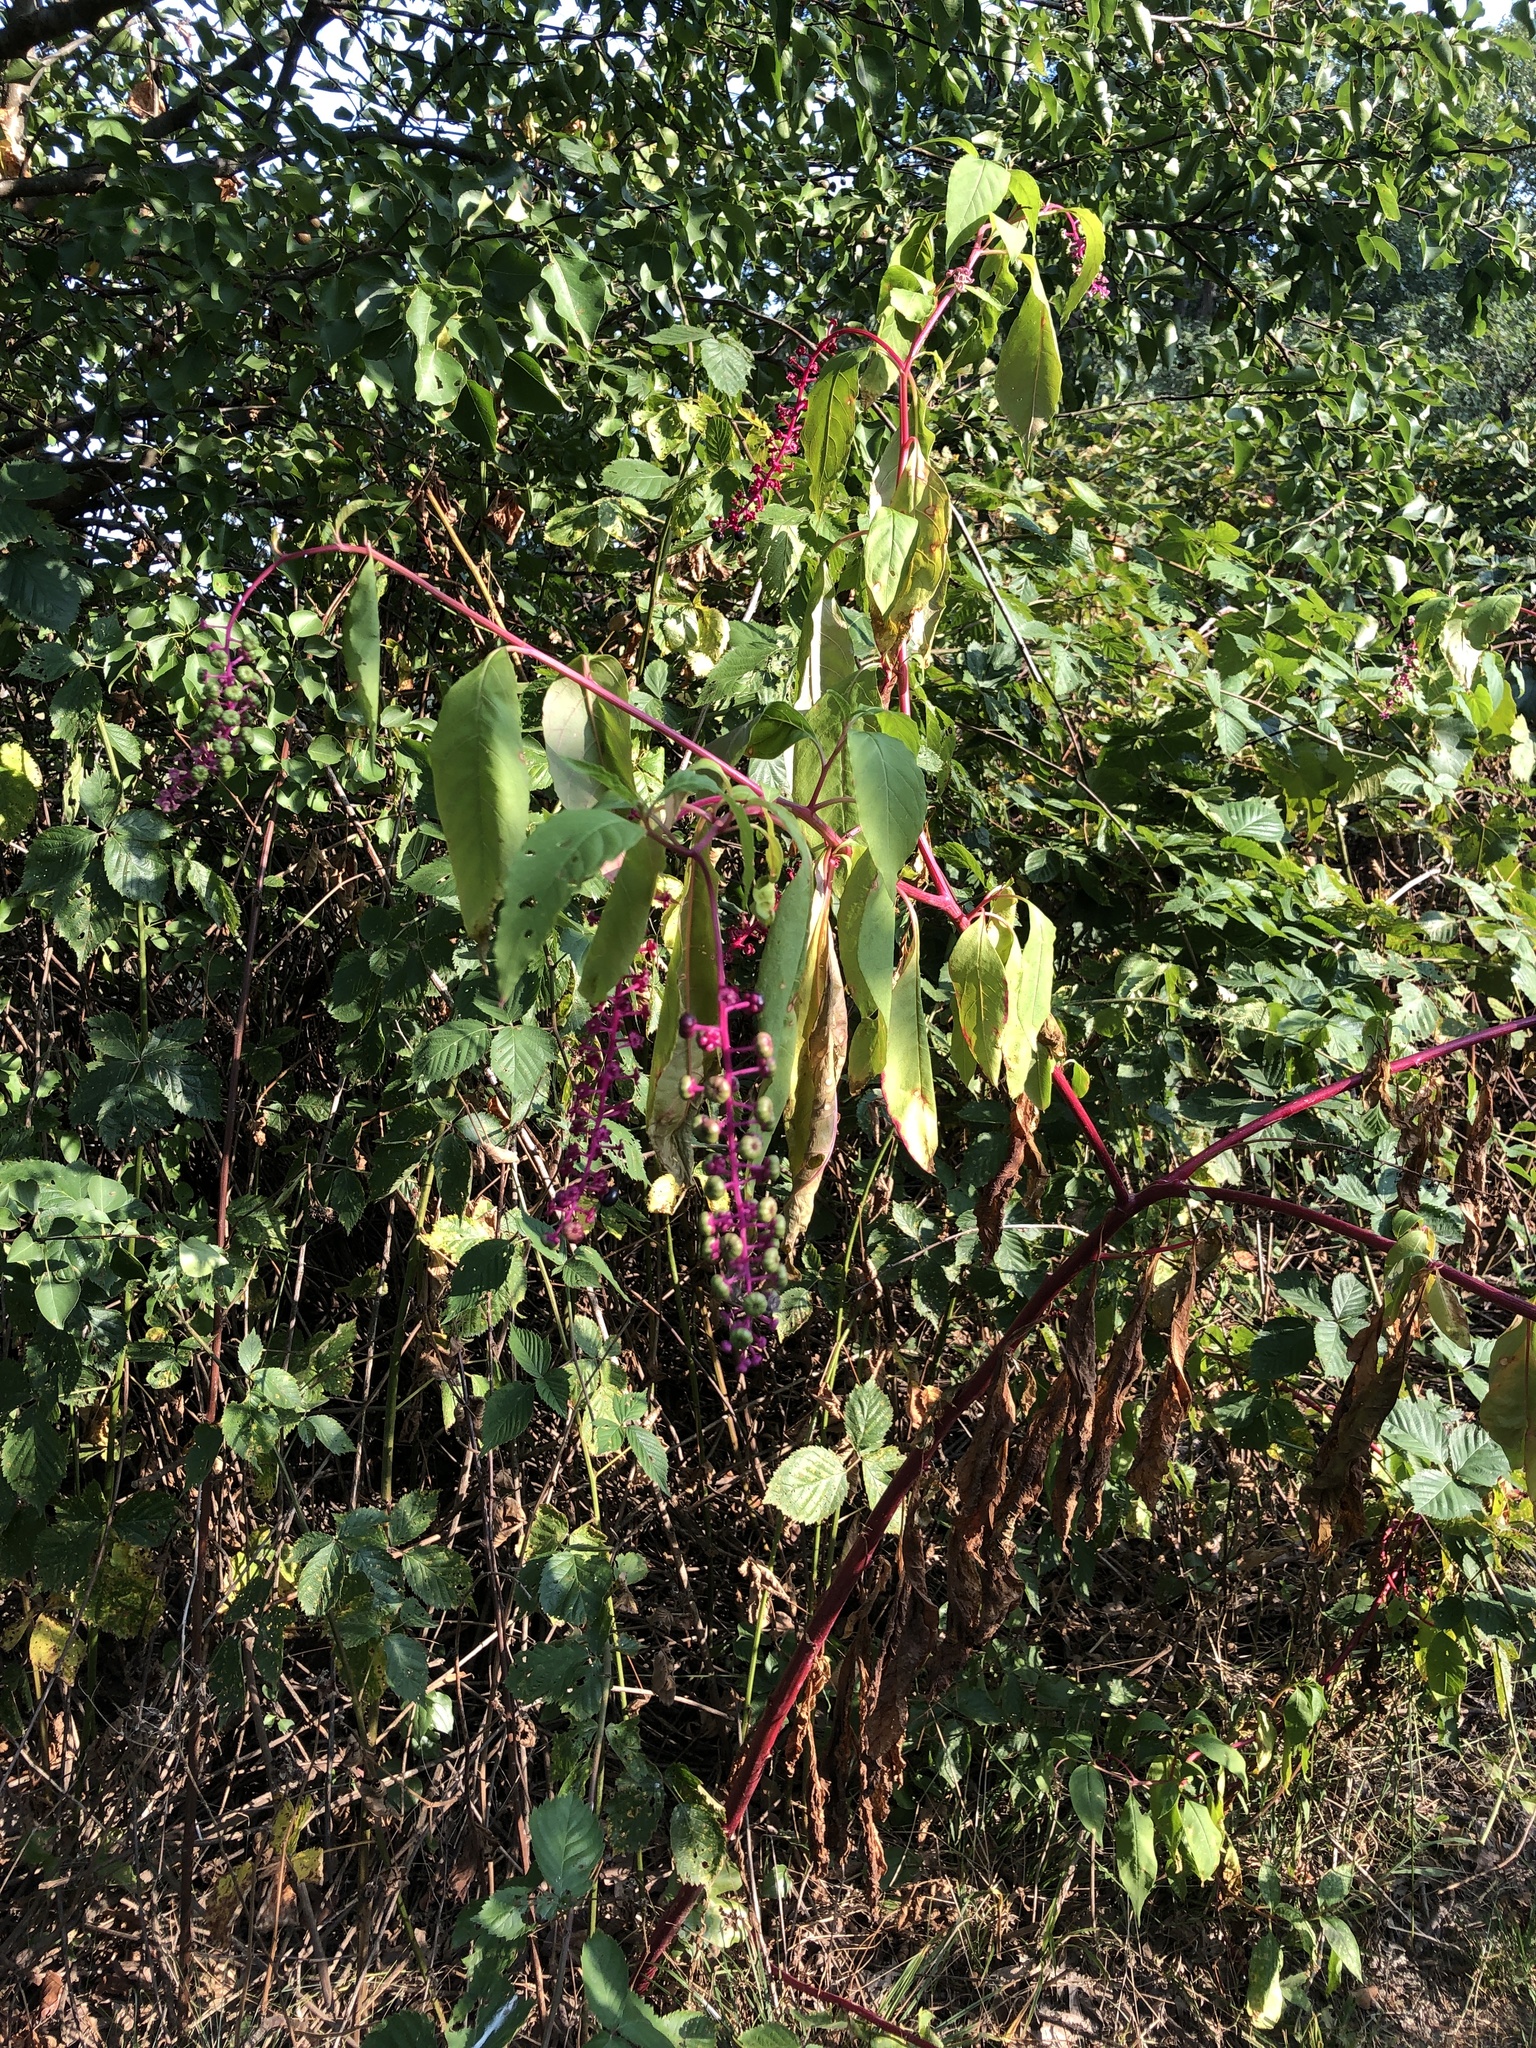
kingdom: Plantae
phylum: Tracheophyta
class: Magnoliopsida
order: Caryophyllales
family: Phytolaccaceae
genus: Phytolacca
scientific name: Phytolacca americana
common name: American pokeweed
